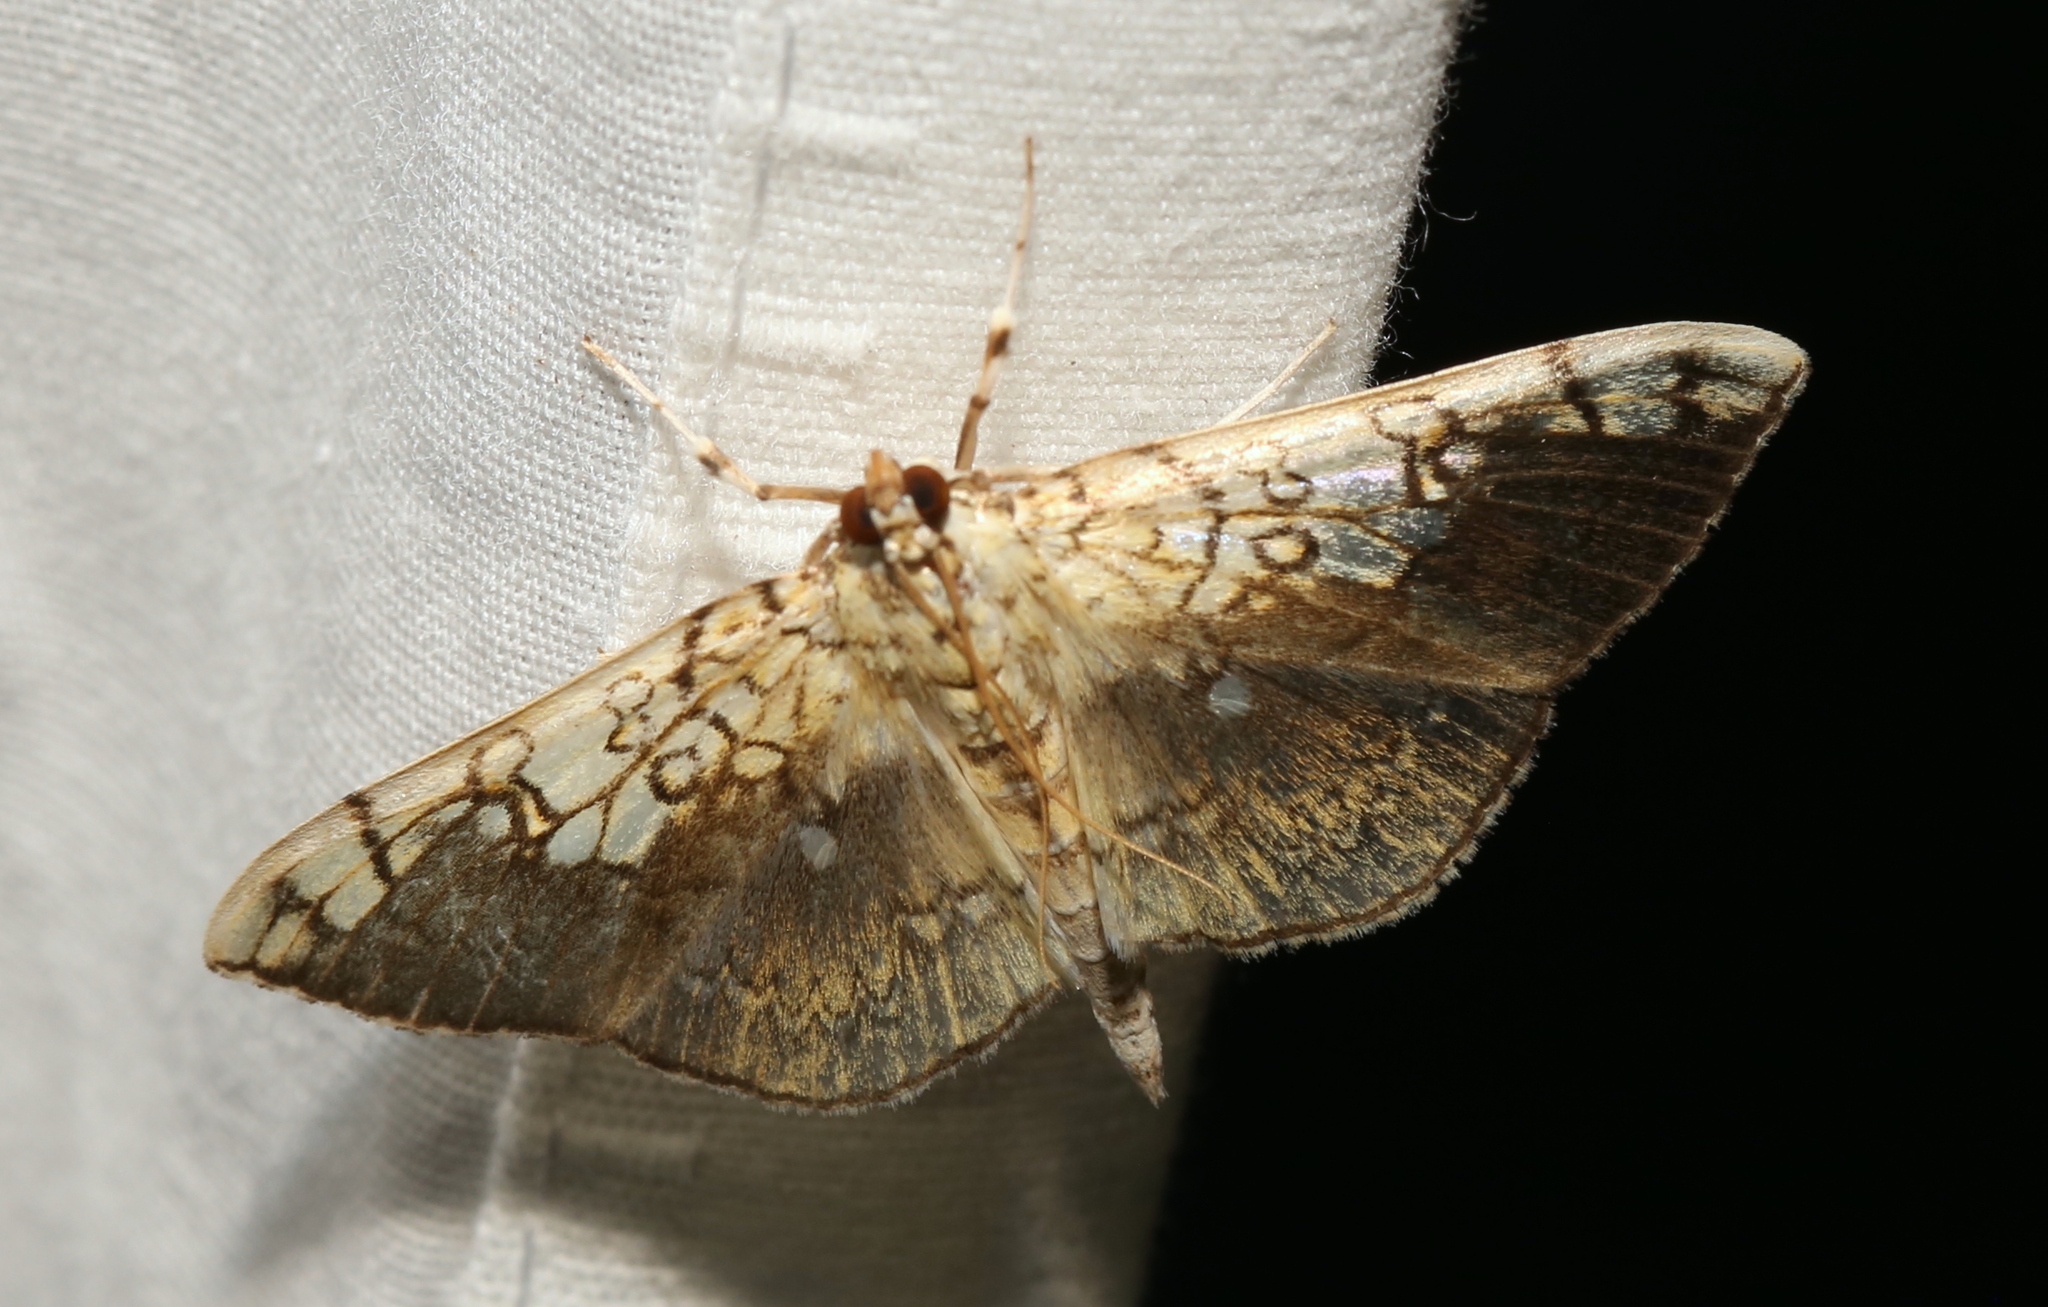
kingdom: Animalia
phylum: Arthropoda
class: Insecta
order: Lepidoptera
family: Crambidae
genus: Pantographa
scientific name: Pantographa limata
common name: Basswood leafroller moth
